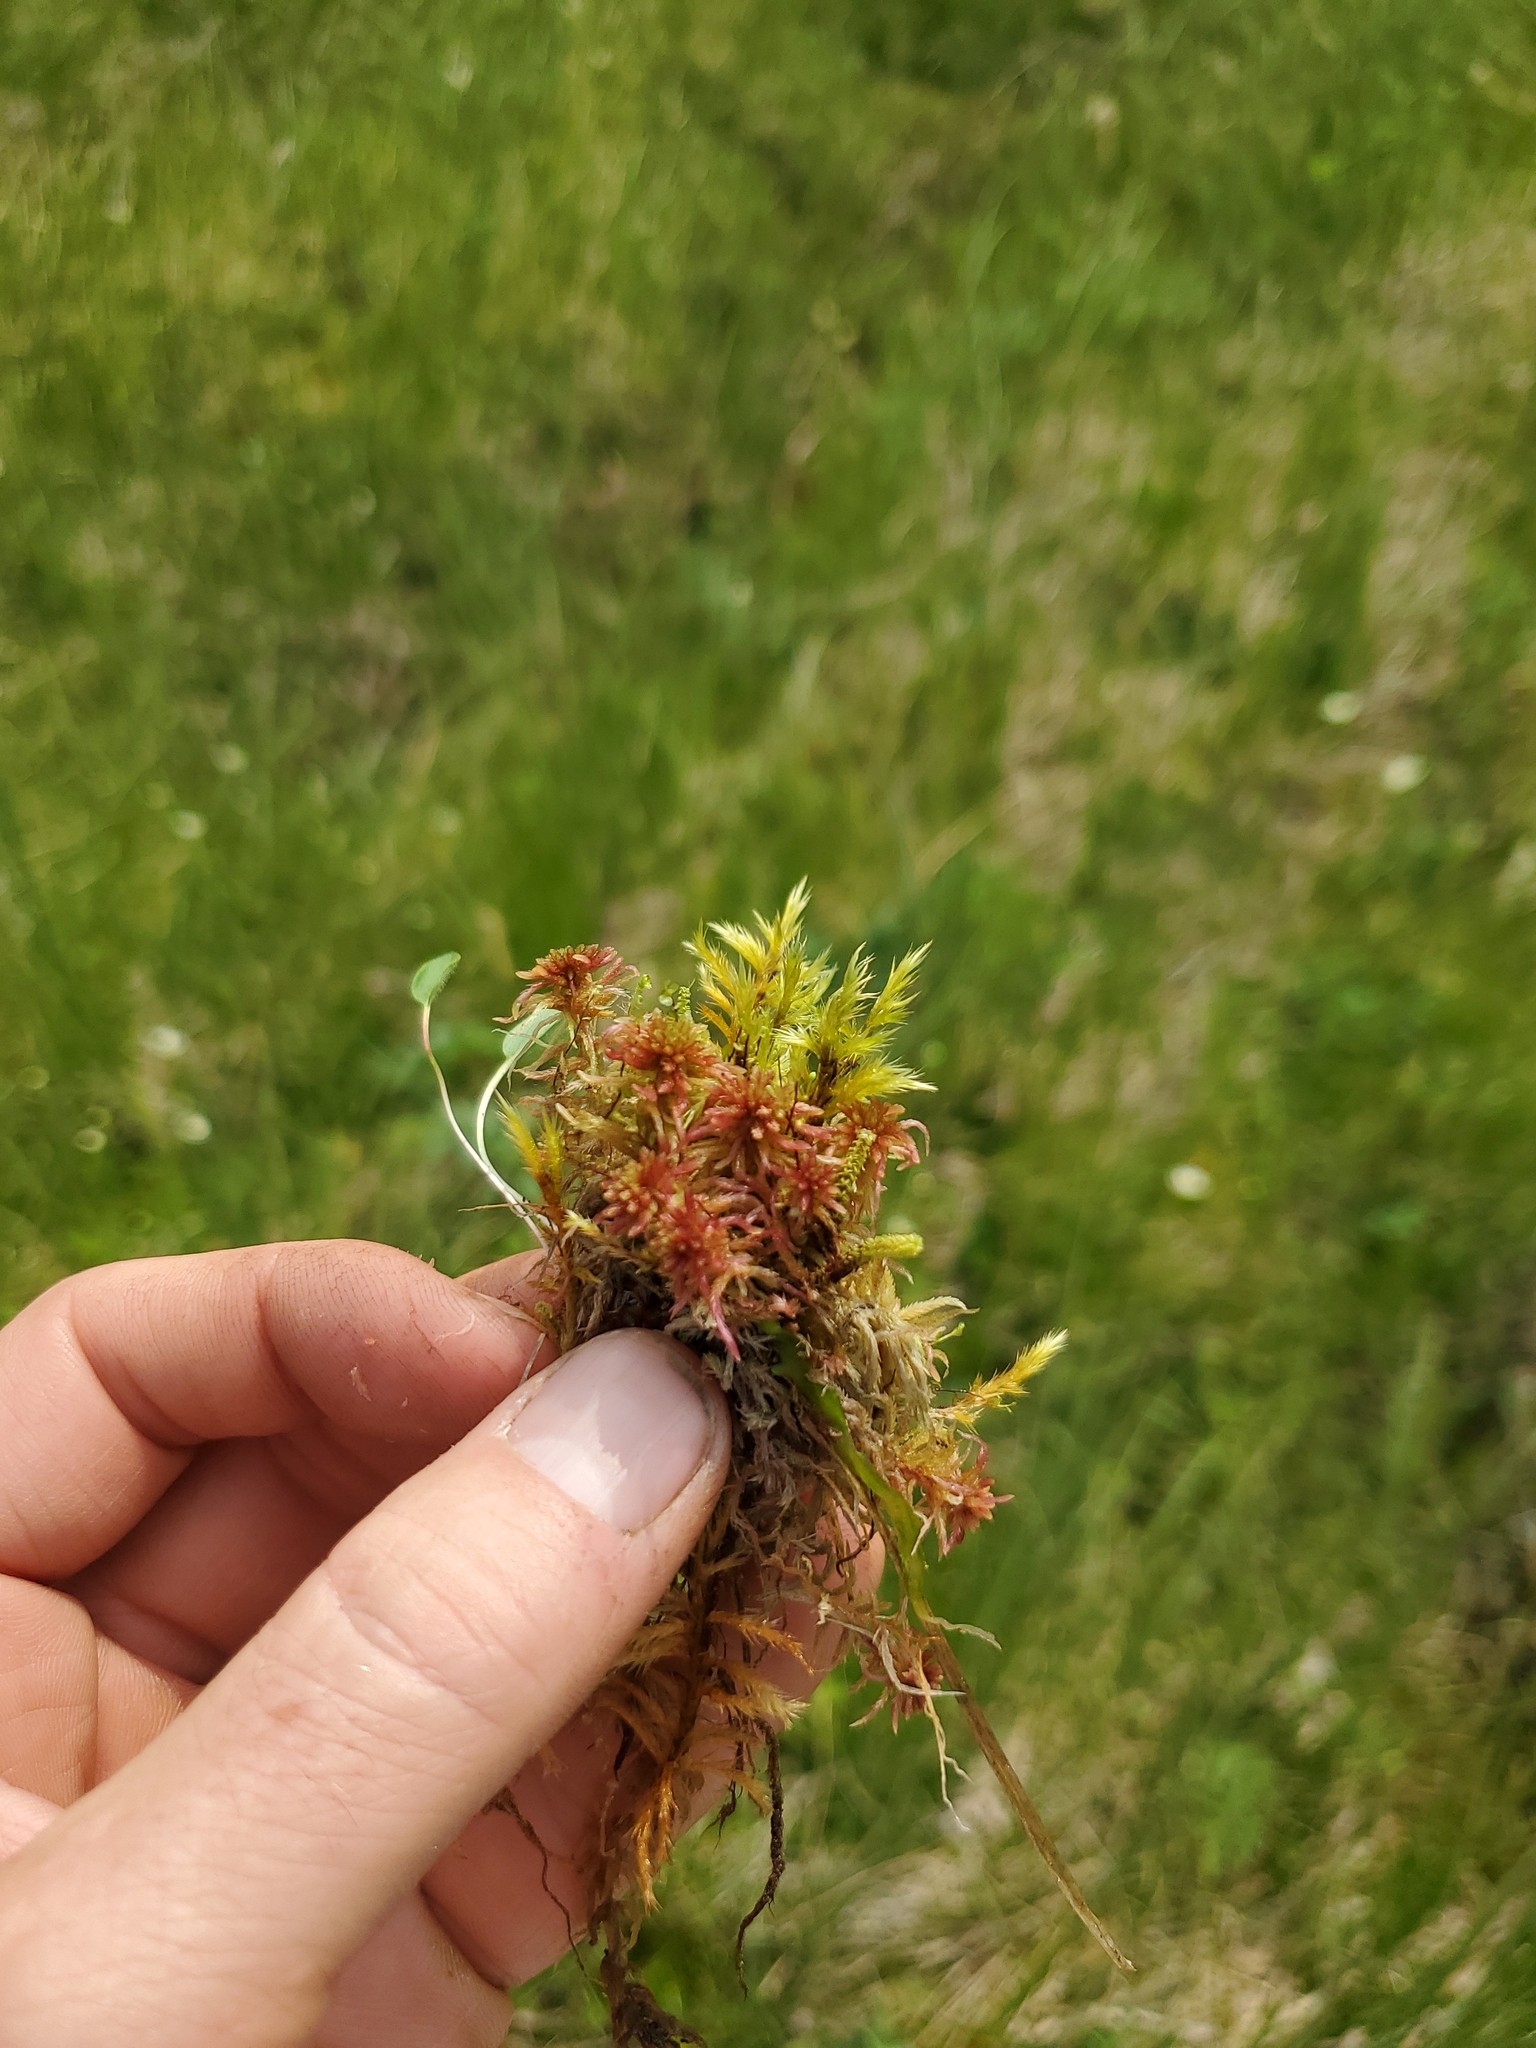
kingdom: Plantae
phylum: Bryophyta
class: Bryopsida
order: Splachnales
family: Meesiaceae
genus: Paludella
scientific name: Paludella squarrosa
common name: Tufted fen moss
